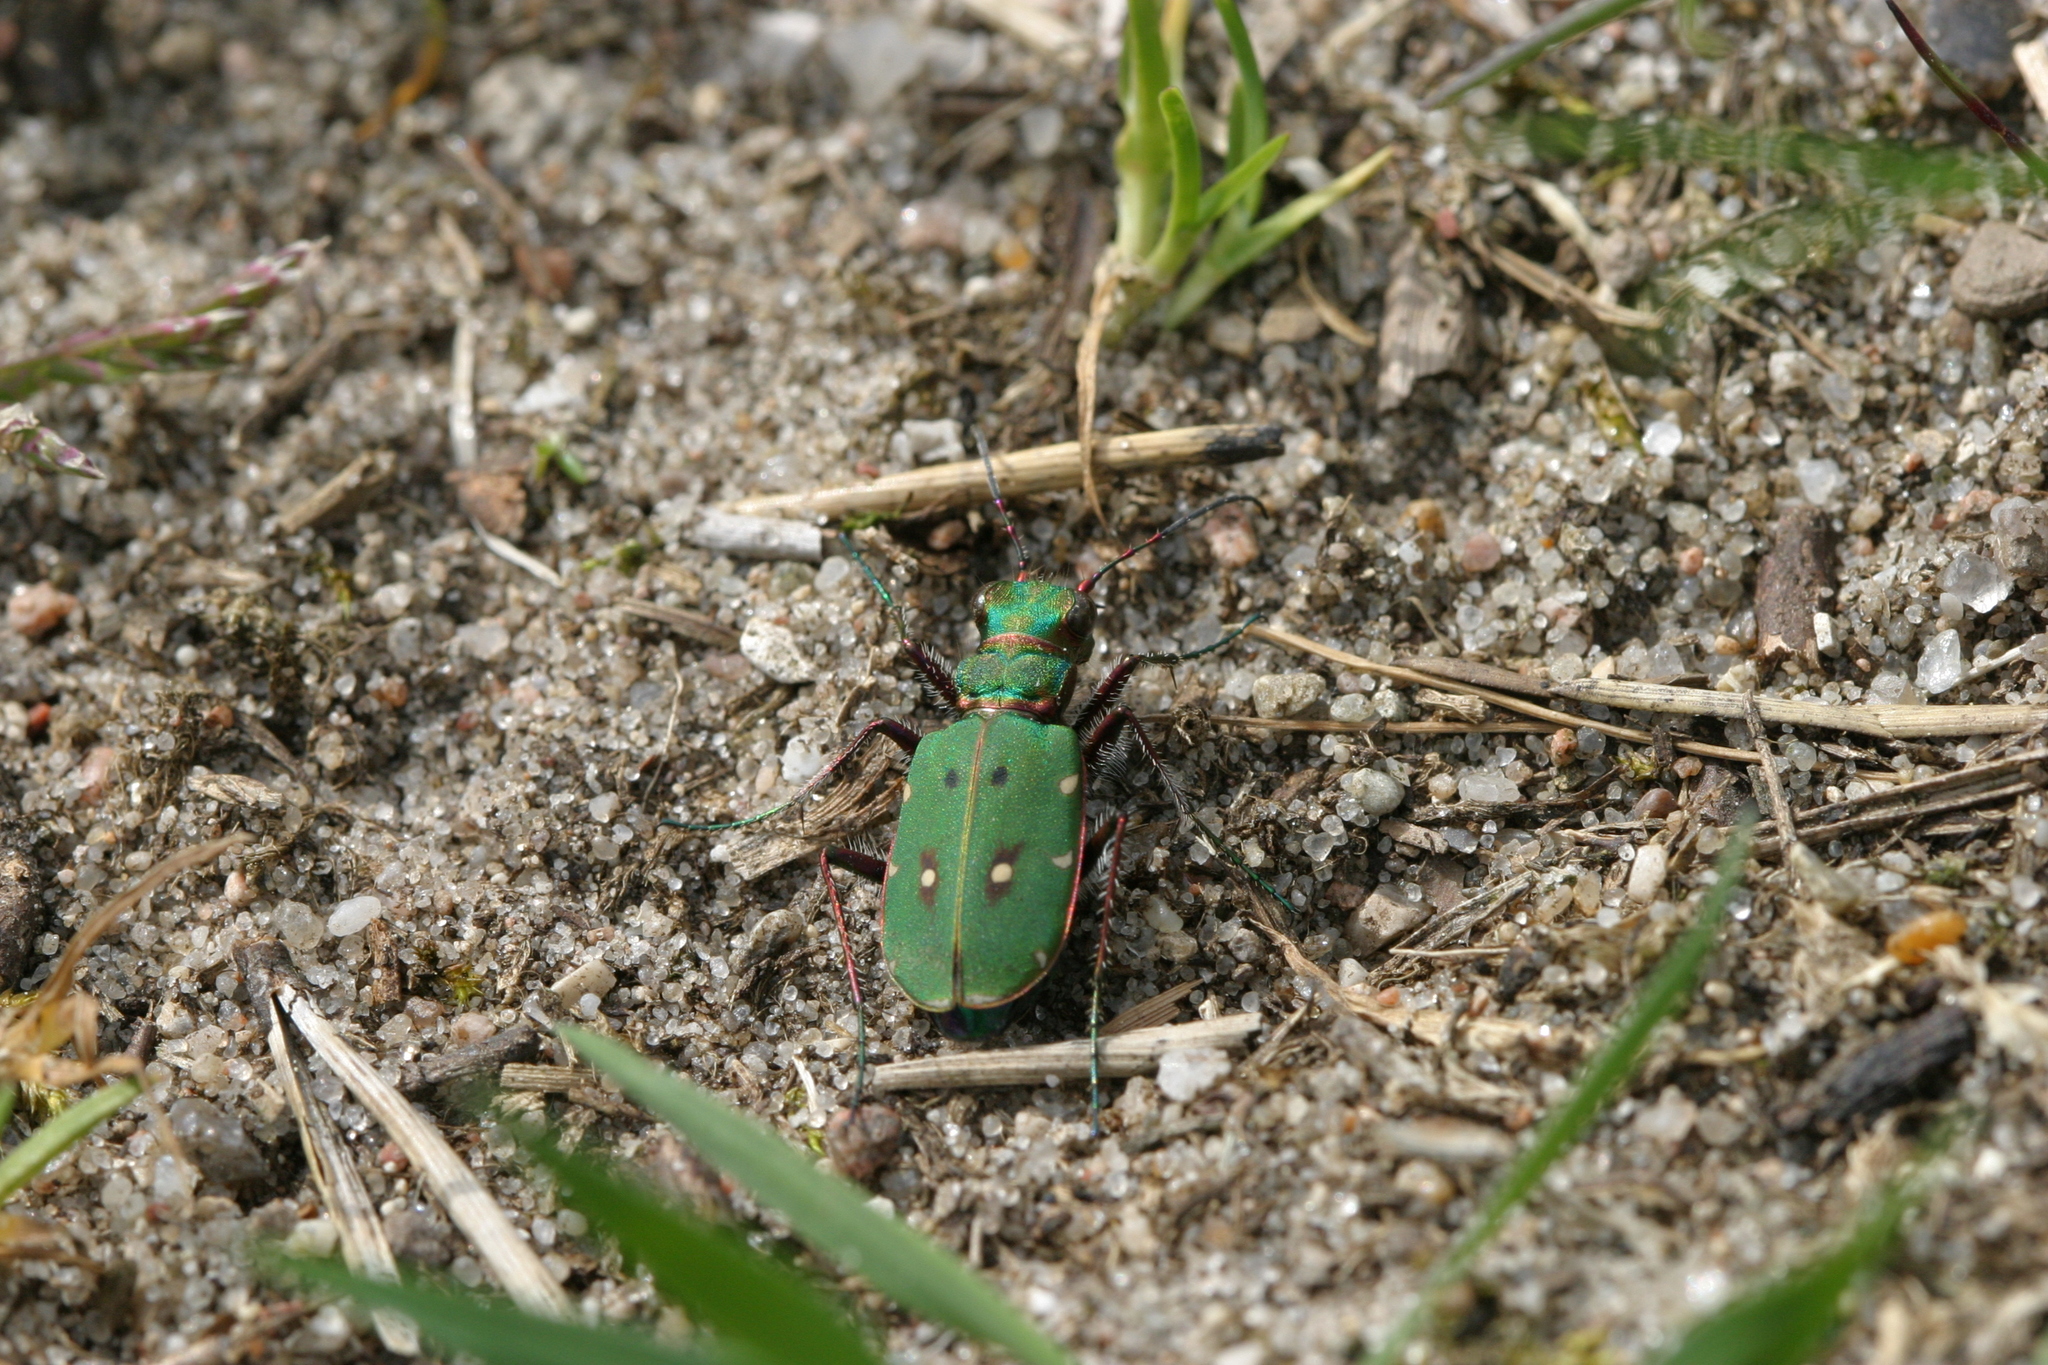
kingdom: Animalia
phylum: Arthropoda
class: Insecta
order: Coleoptera
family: Carabidae
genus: Cicindela
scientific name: Cicindela campestris
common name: Common tiger beetle
